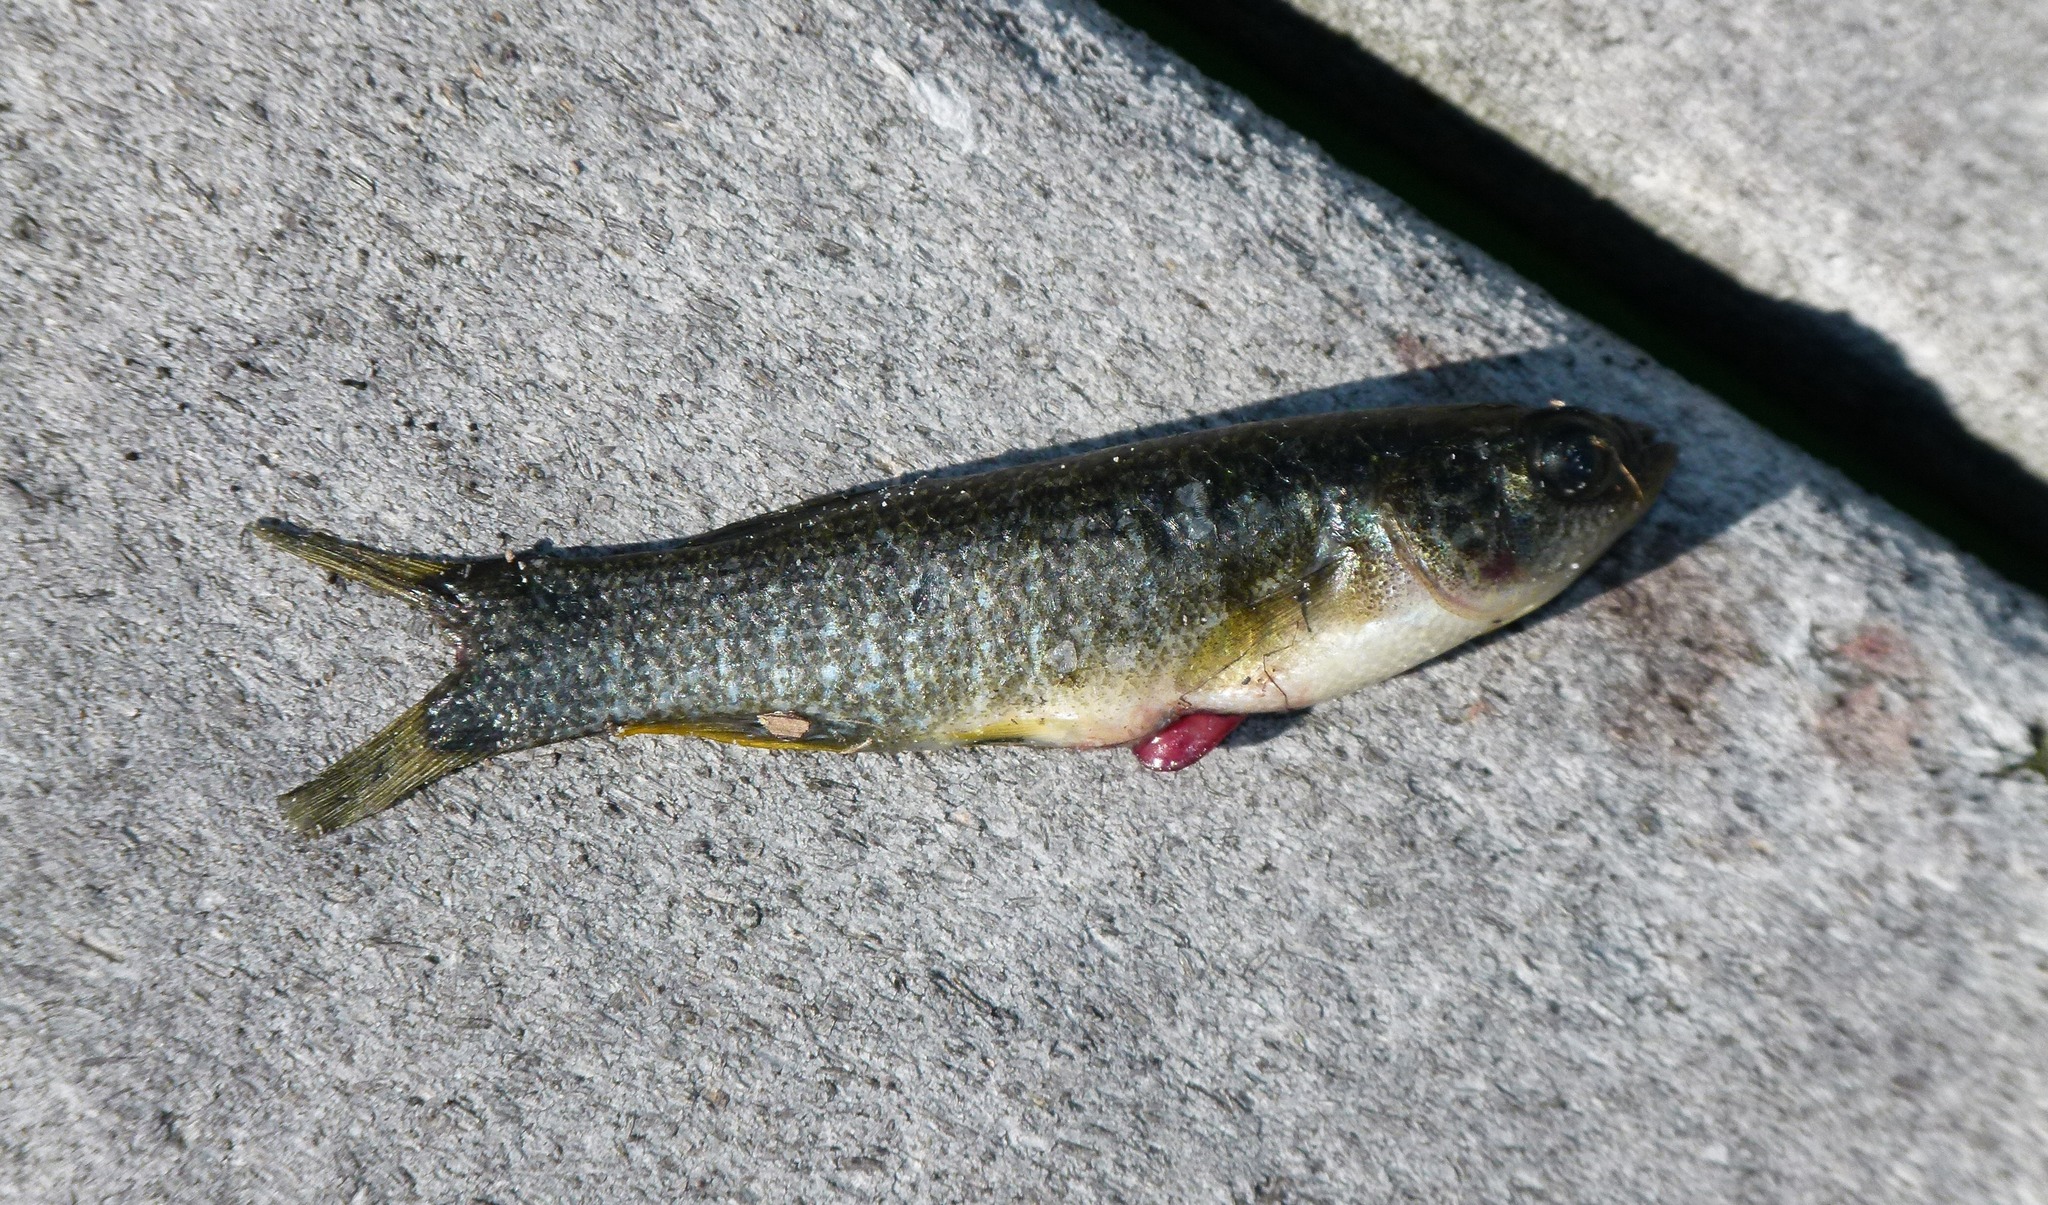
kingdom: Animalia
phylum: Chordata
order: Cyprinodontiformes
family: Fundulidae
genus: Fundulus
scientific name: Fundulus heteroclitus
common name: Mummichog
